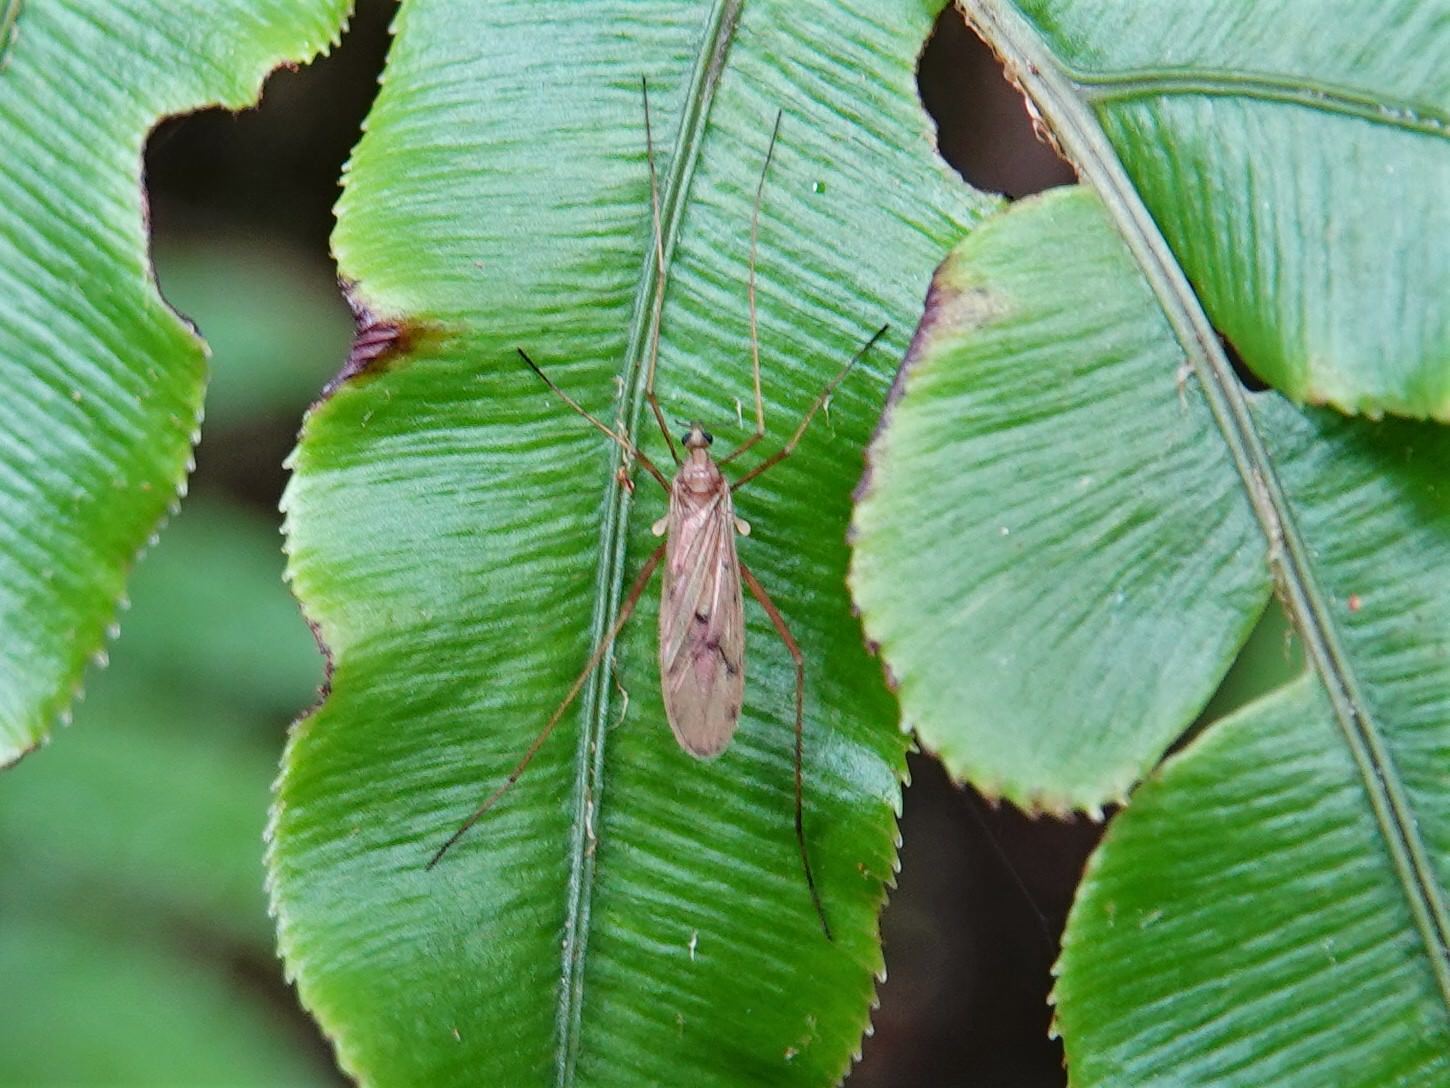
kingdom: Animalia
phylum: Arthropoda
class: Insecta
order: Diptera
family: Limoniidae
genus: Amphineurus
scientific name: Amphineurus insulsus
